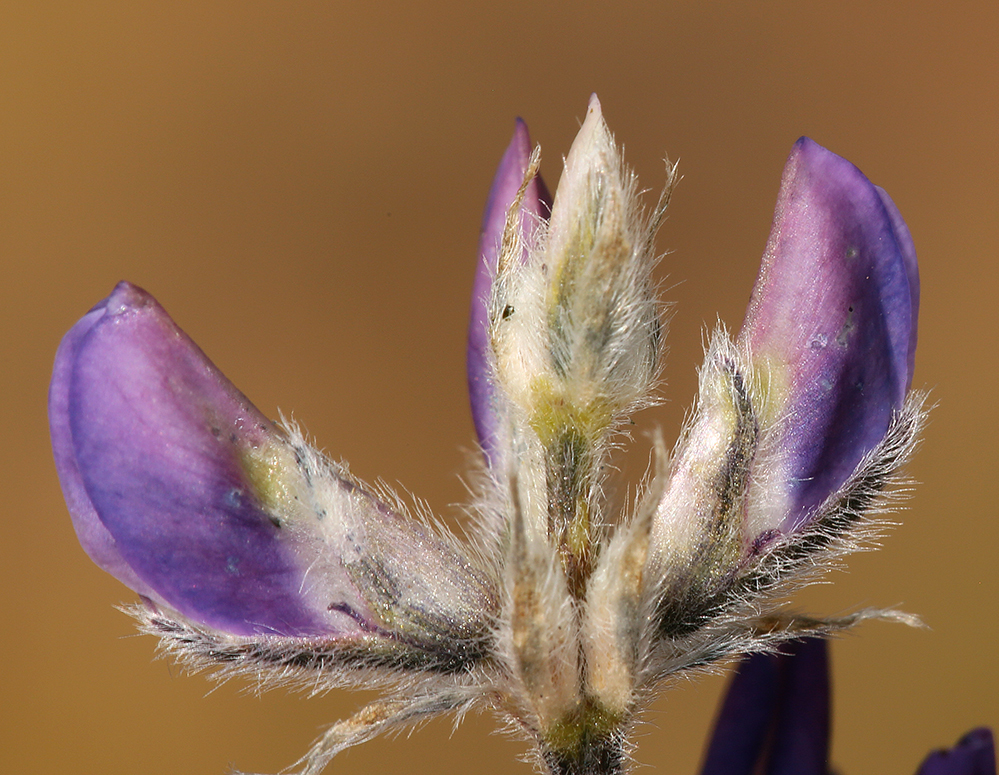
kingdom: Plantae
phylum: Tracheophyta
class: Magnoliopsida
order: Fabales
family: Fabaceae
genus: Lupinus
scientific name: Lupinus confertus
